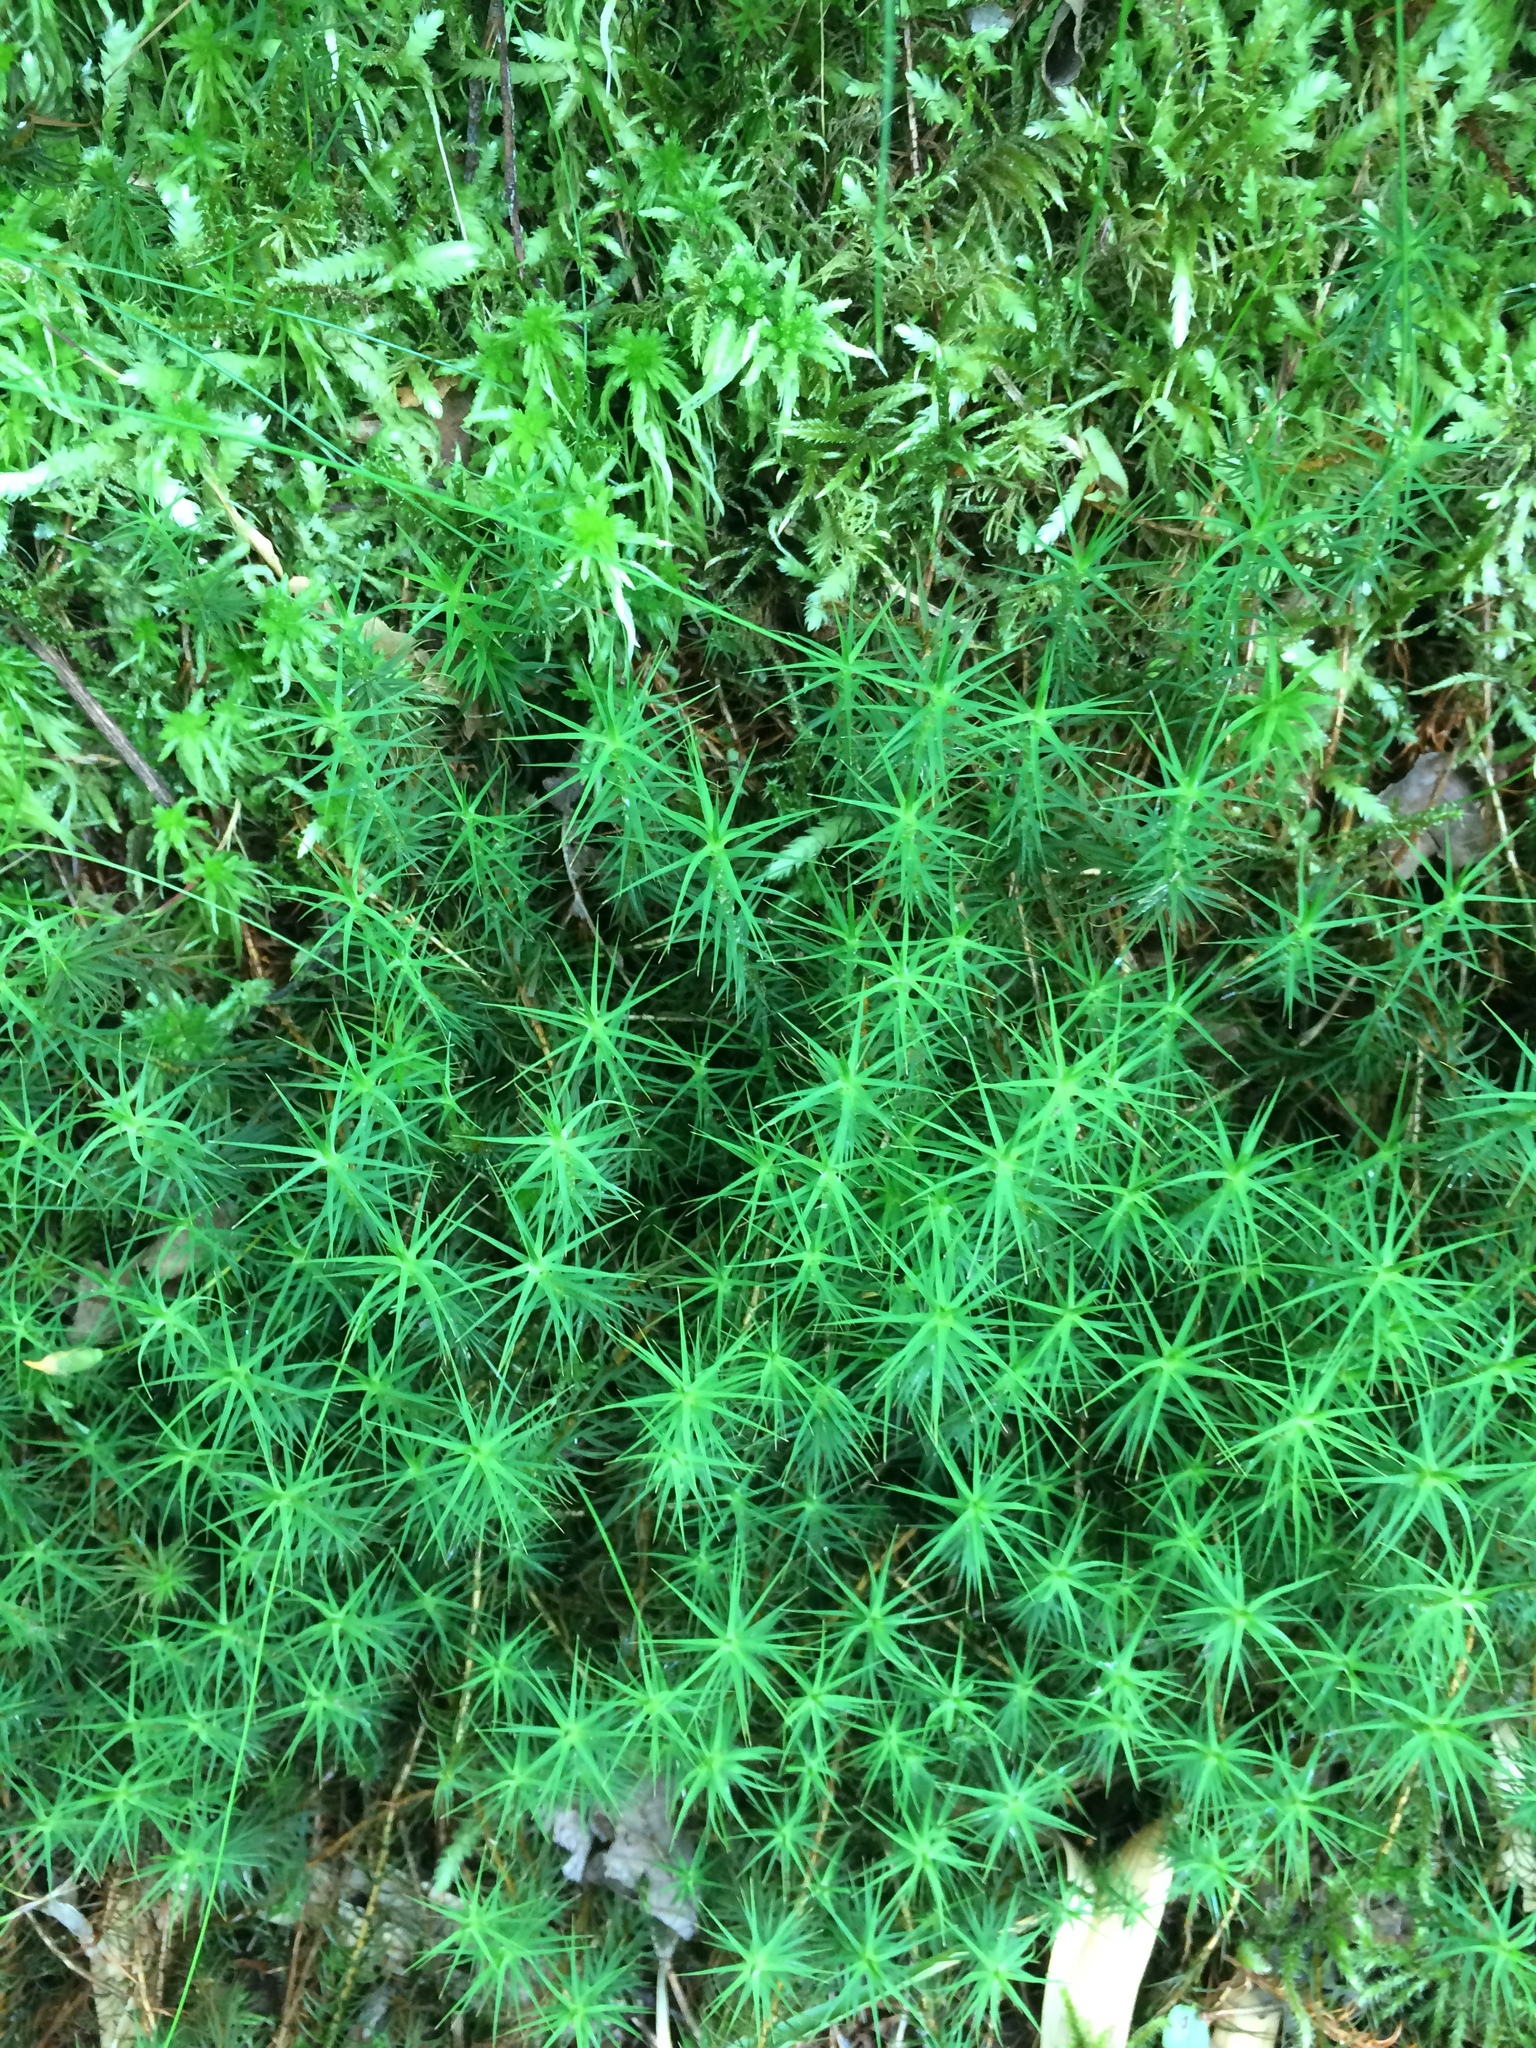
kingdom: Plantae
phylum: Bryophyta
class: Polytrichopsida
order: Polytrichales
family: Polytrichaceae
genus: Polytrichum
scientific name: Polytrichum commune
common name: Common haircap
